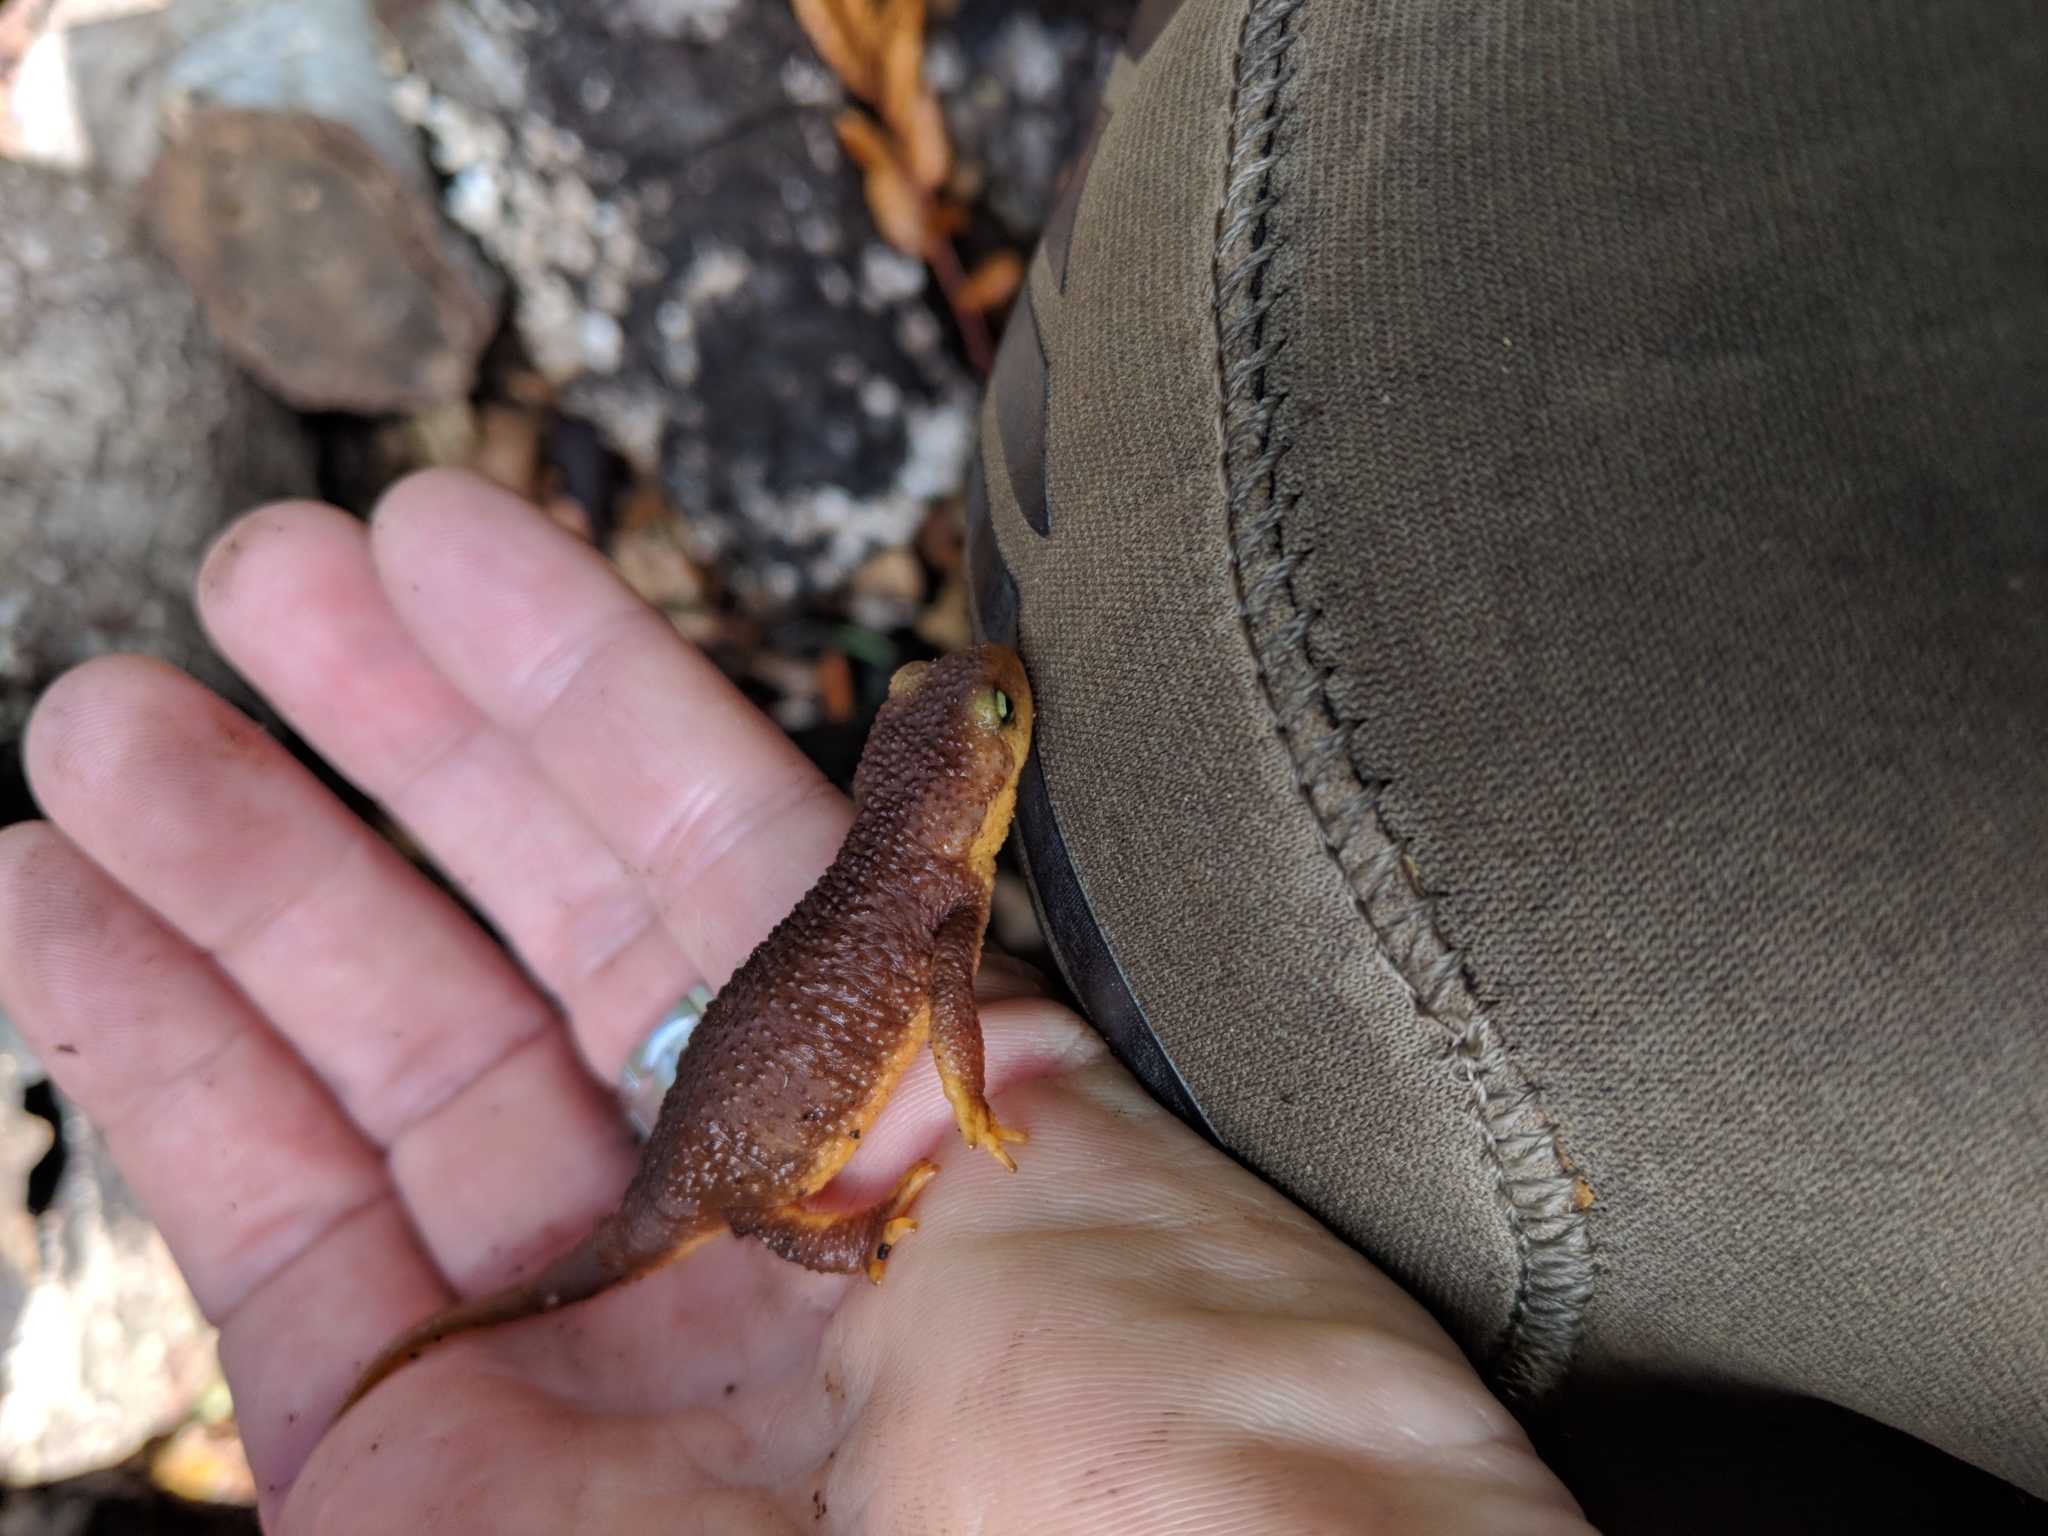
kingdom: Animalia
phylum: Chordata
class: Amphibia
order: Caudata
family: Salamandridae
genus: Taricha
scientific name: Taricha torosa
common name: California newt
